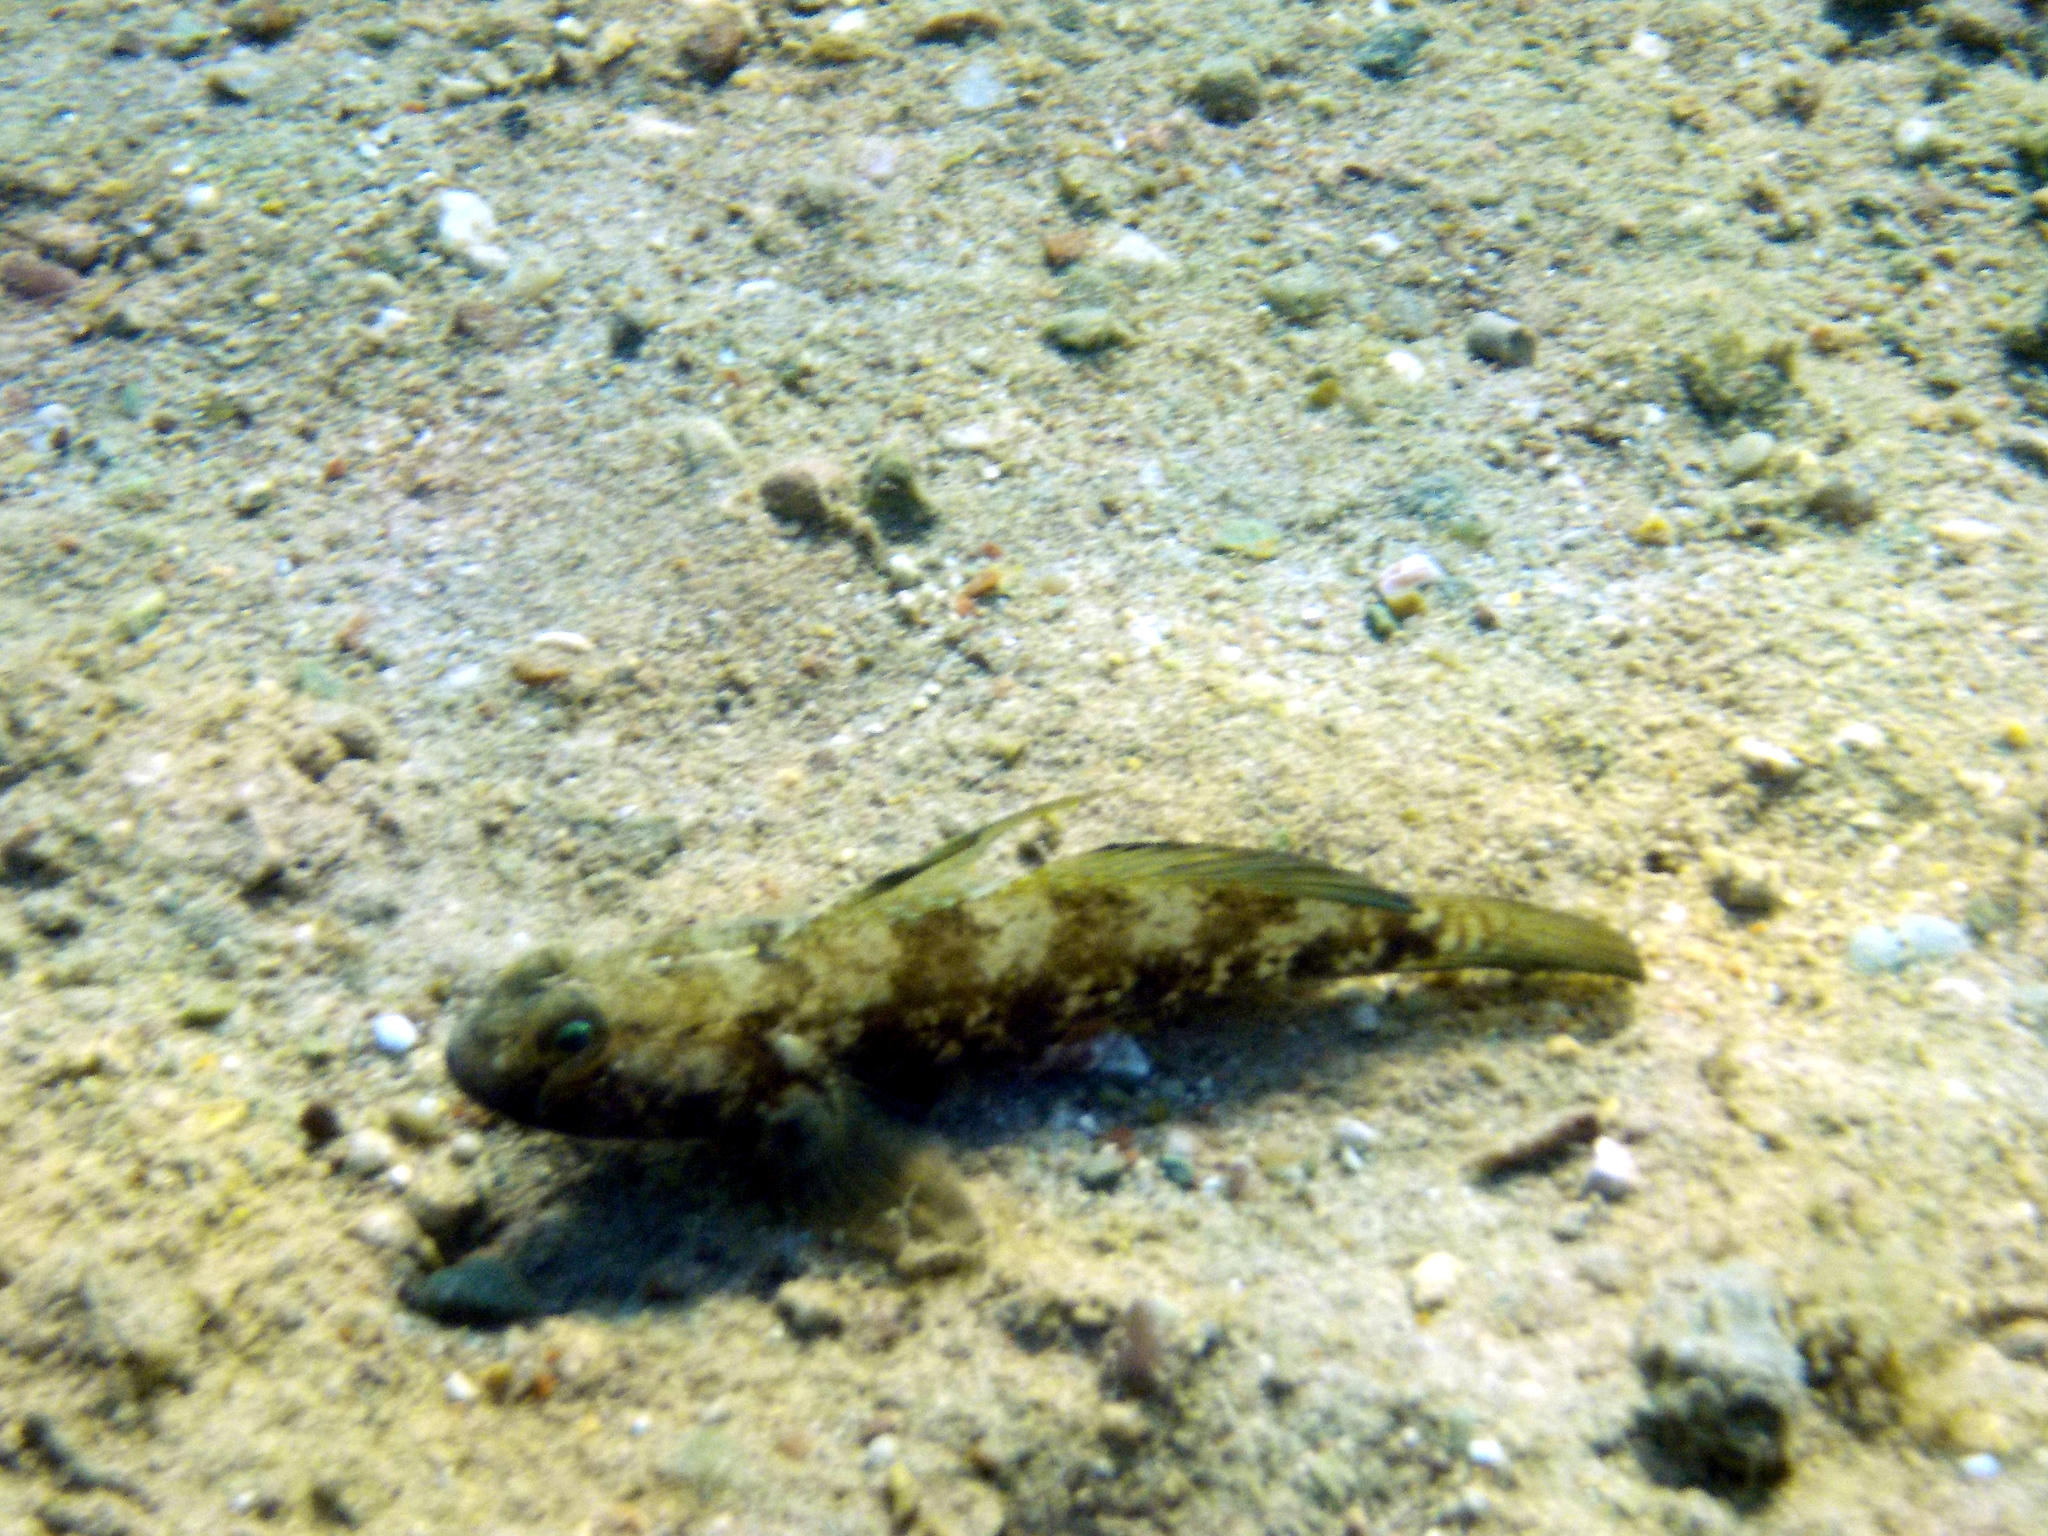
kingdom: Animalia
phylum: Chordata
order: Perciformes
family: Gobiidae
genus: Gobius
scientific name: Gobius niger
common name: Black goby
